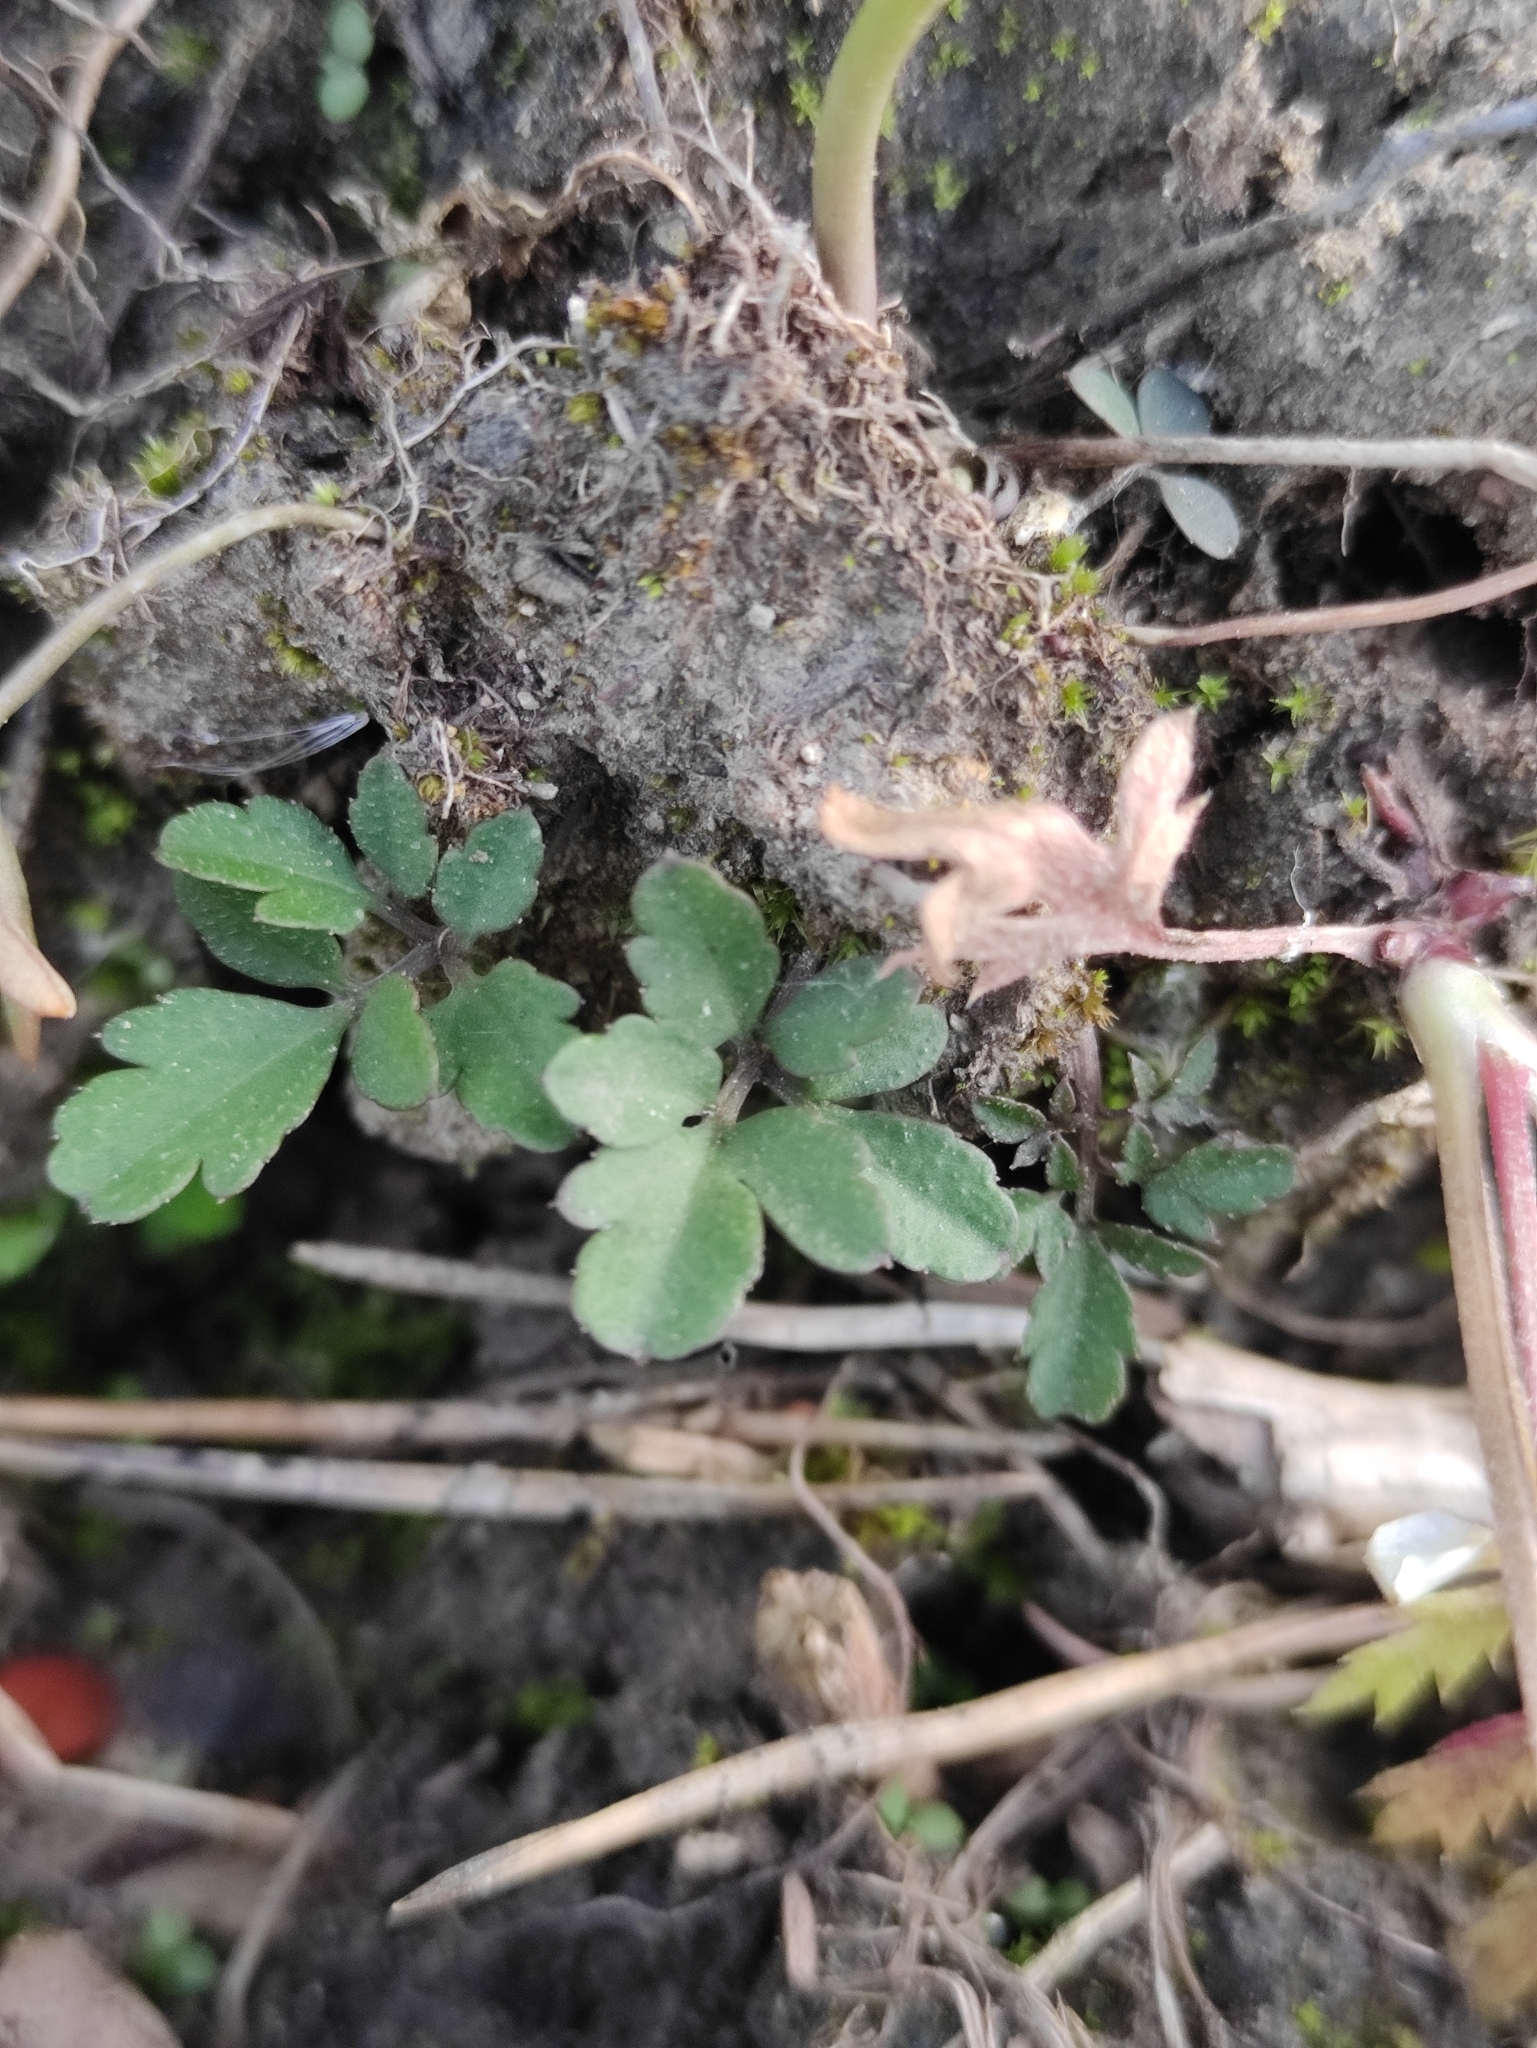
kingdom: Plantae
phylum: Tracheophyta
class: Magnoliopsida
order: Brassicales
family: Brassicaceae
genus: Cardamine
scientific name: Cardamine trifida
